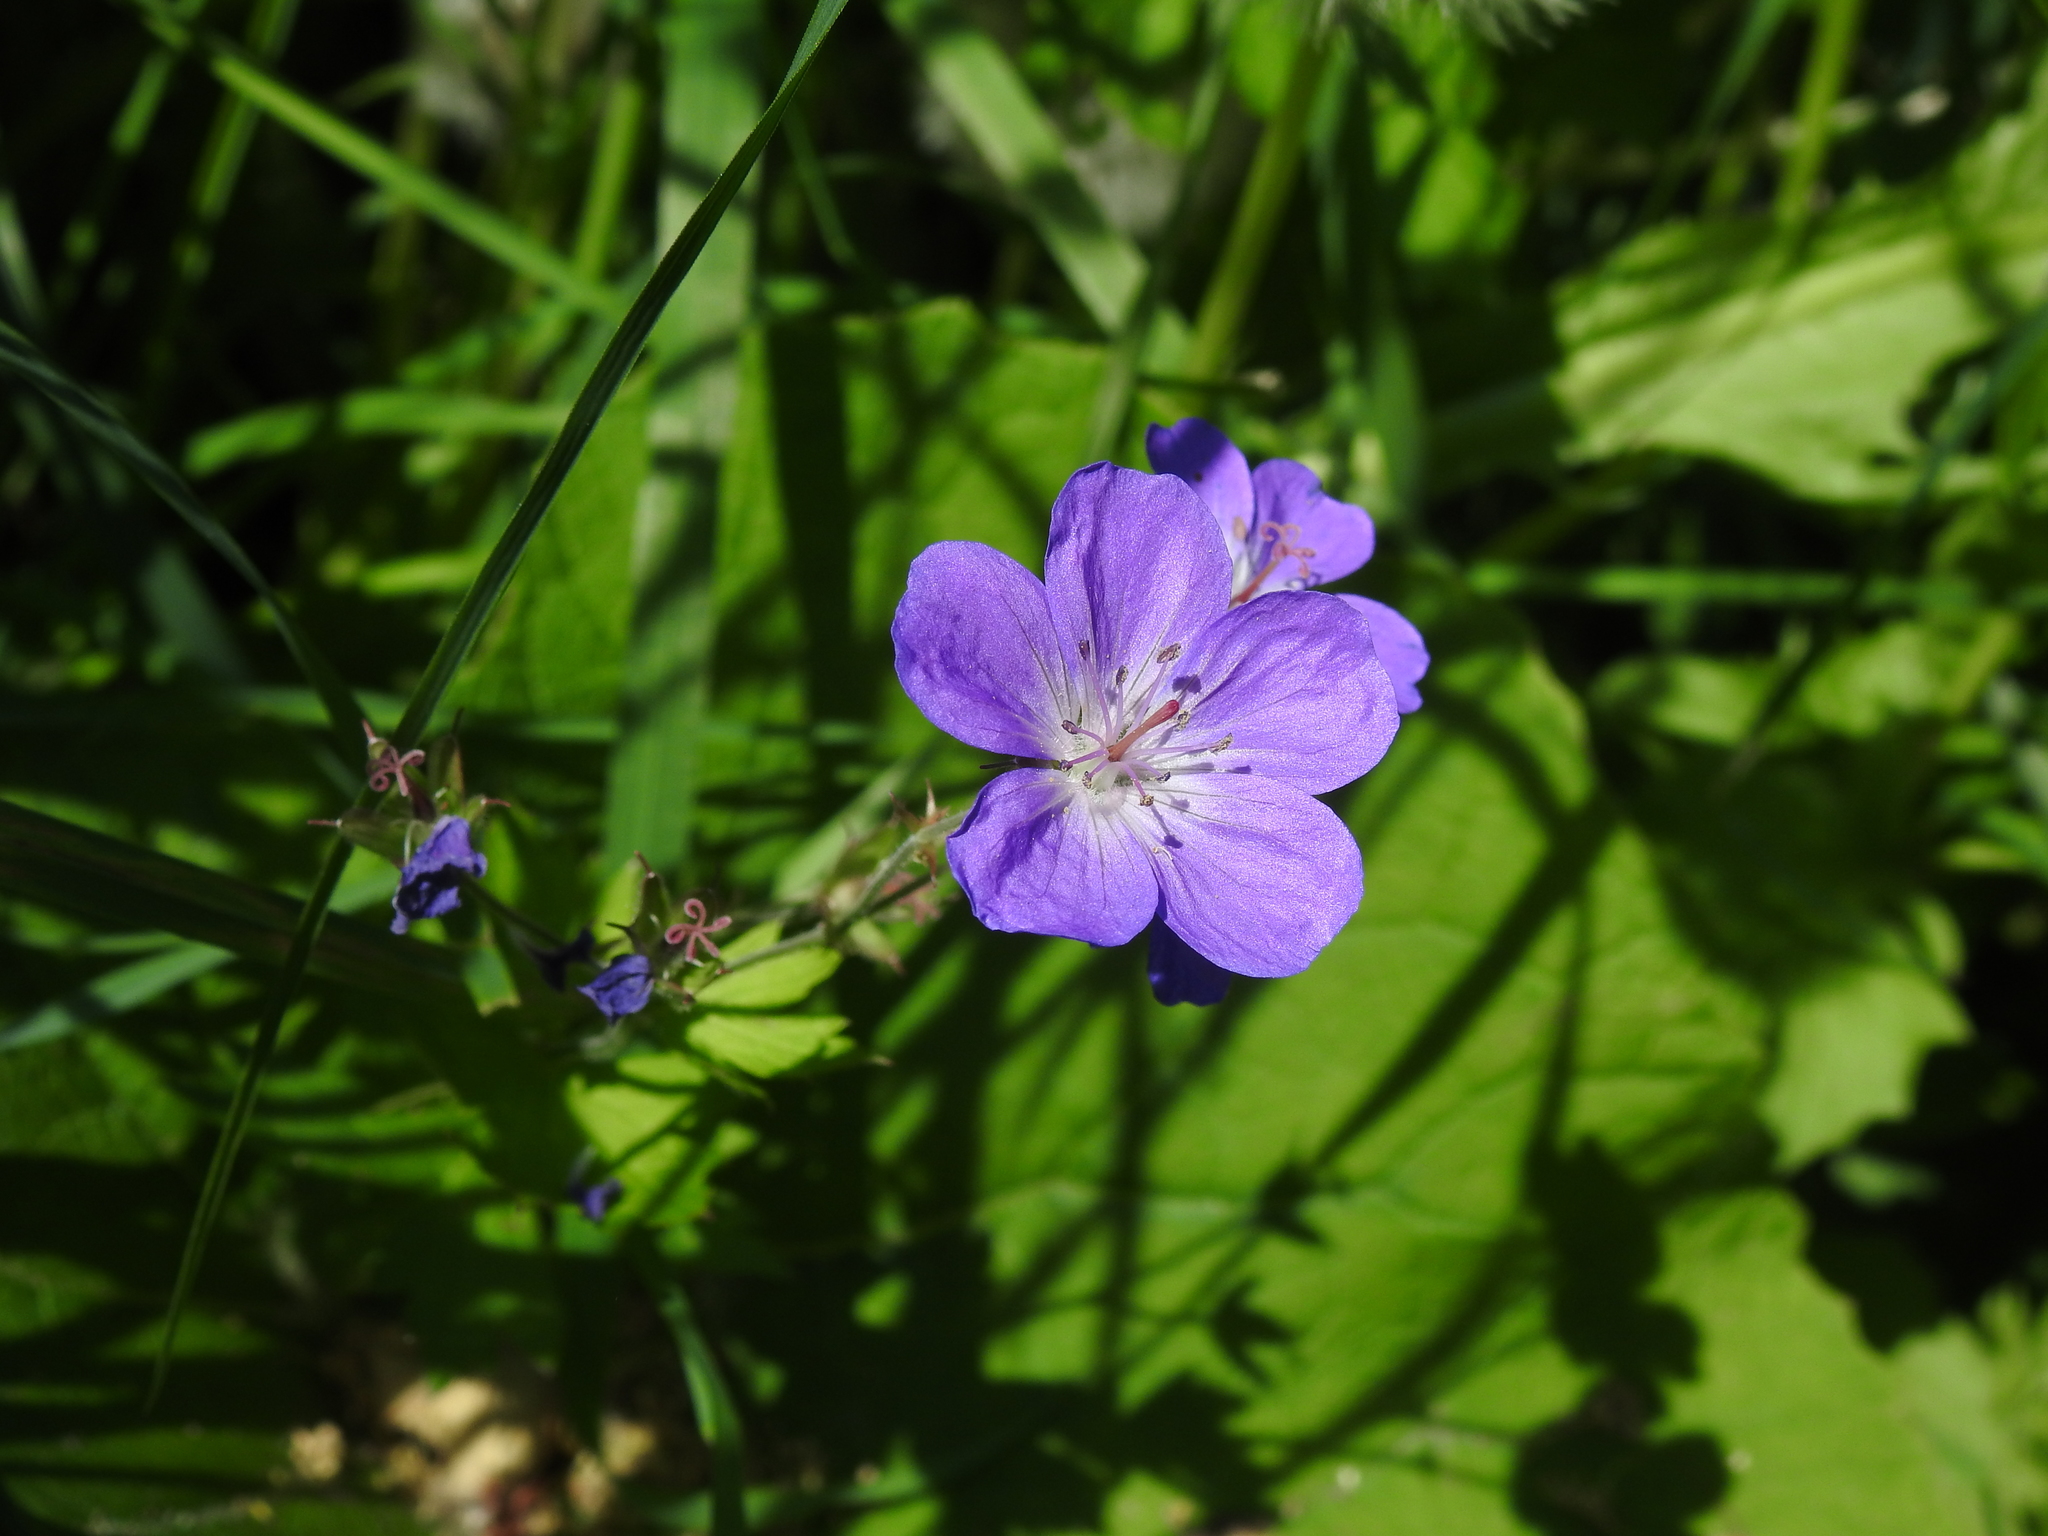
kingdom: Plantae
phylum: Tracheophyta
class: Magnoliopsida
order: Geraniales
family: Geraniaceae
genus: Geranium
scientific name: Geranium sylvaticum
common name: Wood crane's-bill
